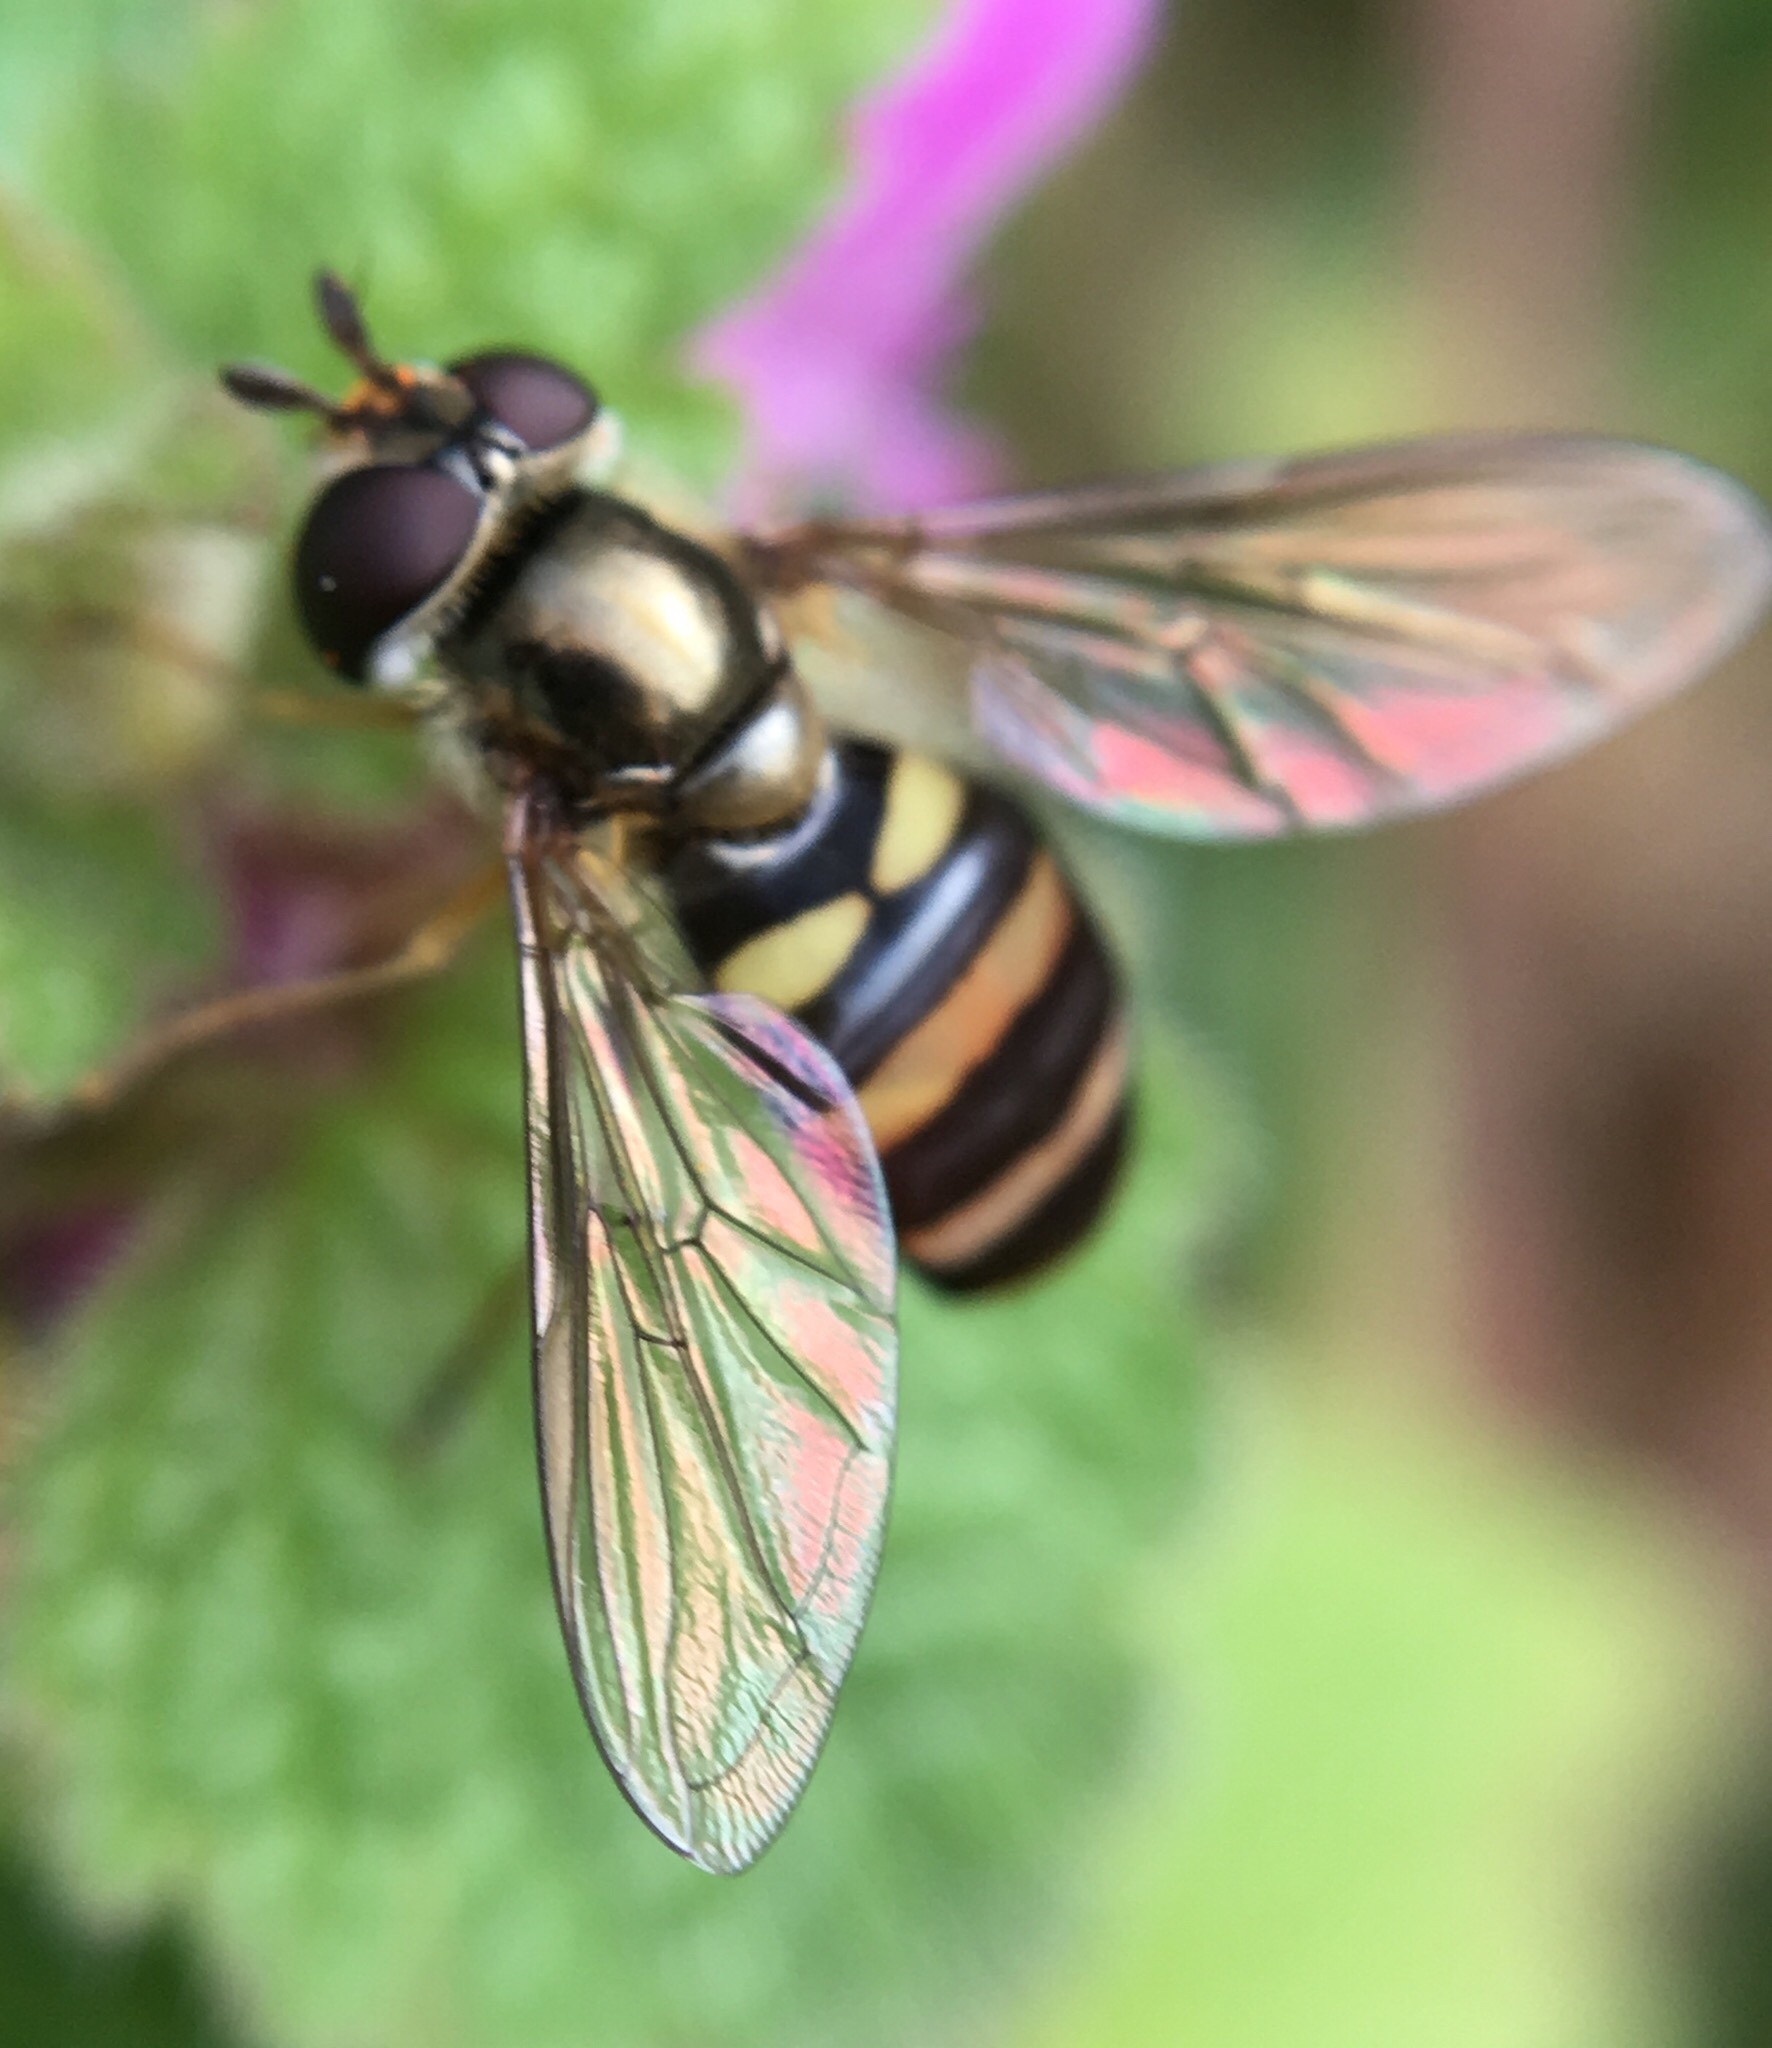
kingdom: Animalia
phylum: Arthropoda
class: Insecta
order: Diptera
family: Syrphidae
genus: Eupeodes
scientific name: Eupeodes
